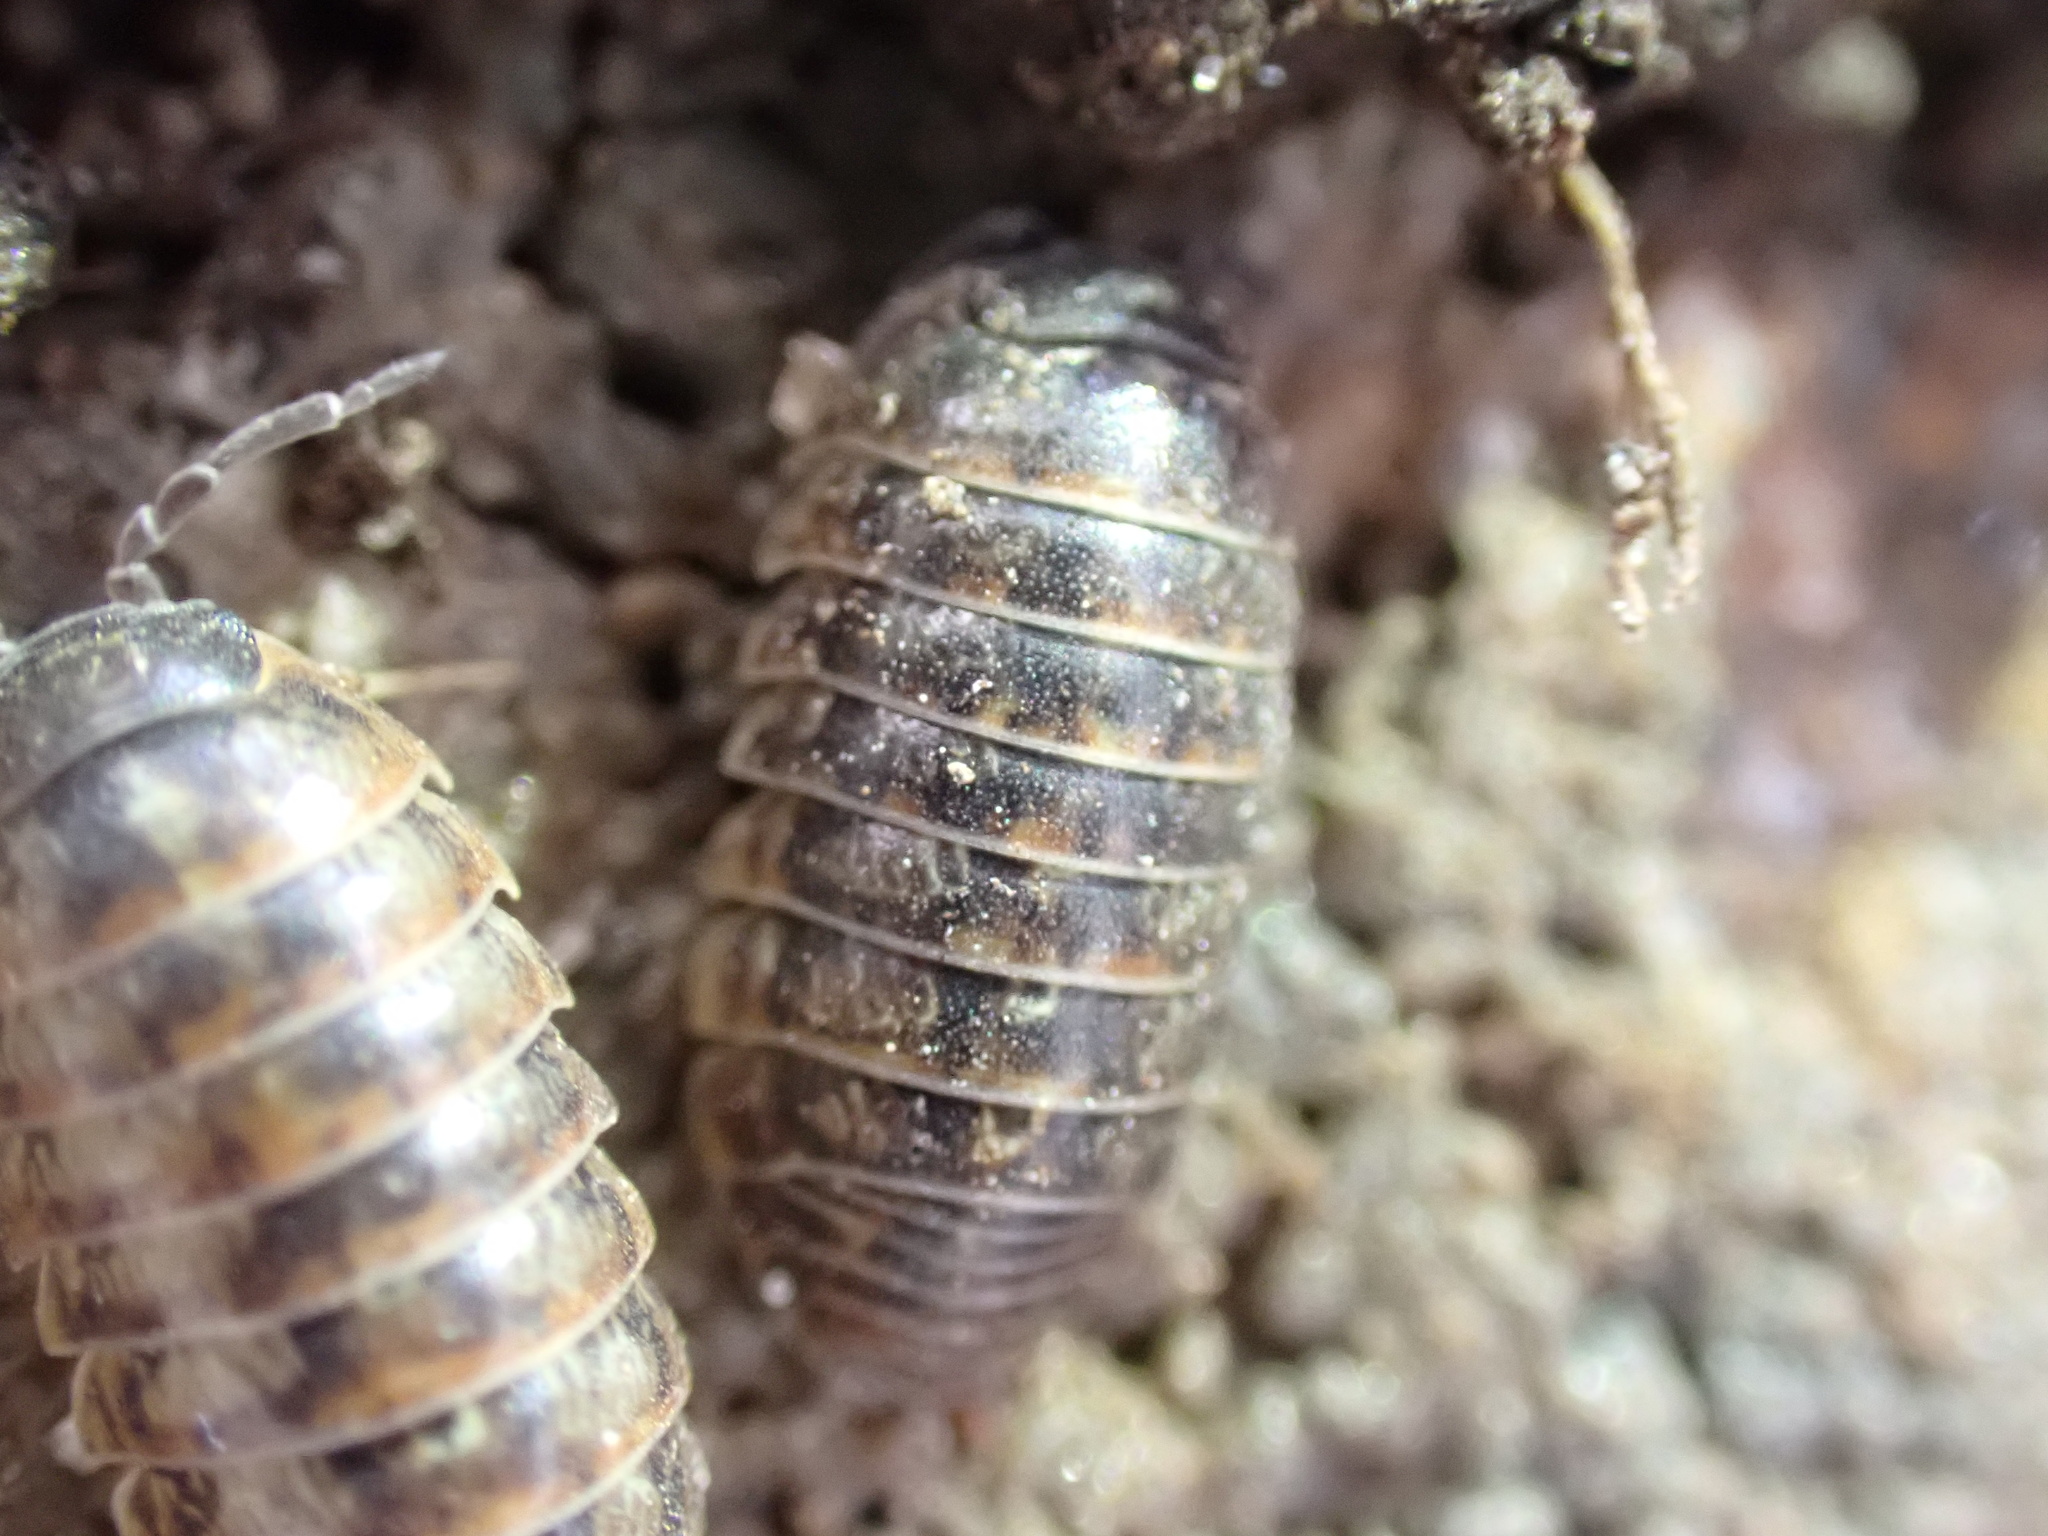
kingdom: Animalia
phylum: Arthropoda
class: Malacostraca
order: Isopoda
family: Armadillidiidae
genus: Armadillidium
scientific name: Armadillidium vulgare
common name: Common pill woodlouse
